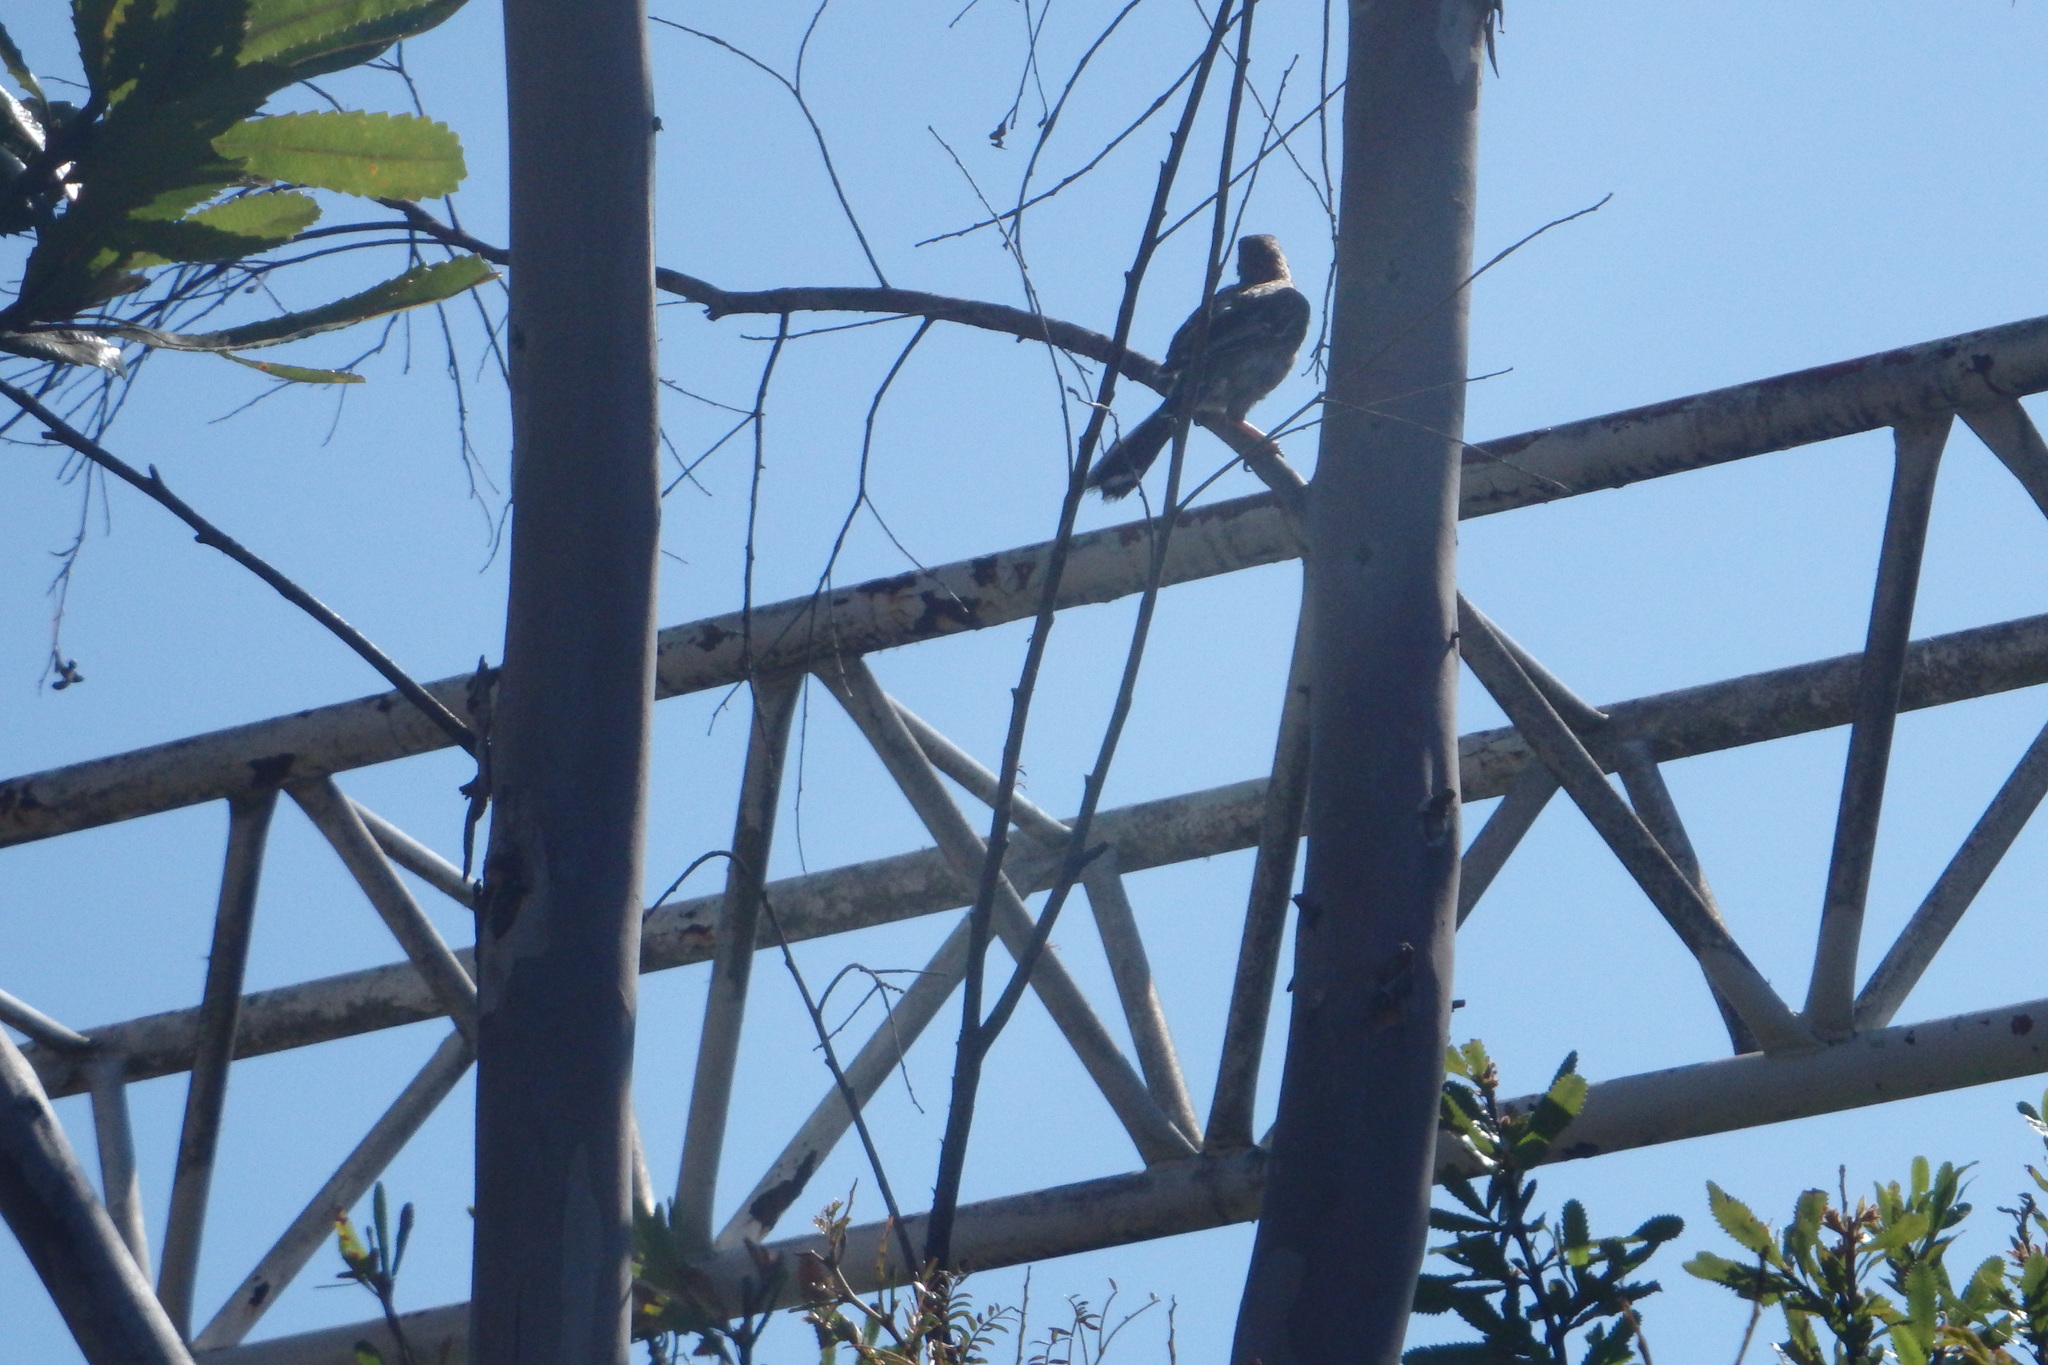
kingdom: Animalia
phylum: Chordata
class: Aves
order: Passeriformes
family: Meliphagidae
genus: Anthochaera
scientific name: Anthochaera carunculata
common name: Red wattlebird
